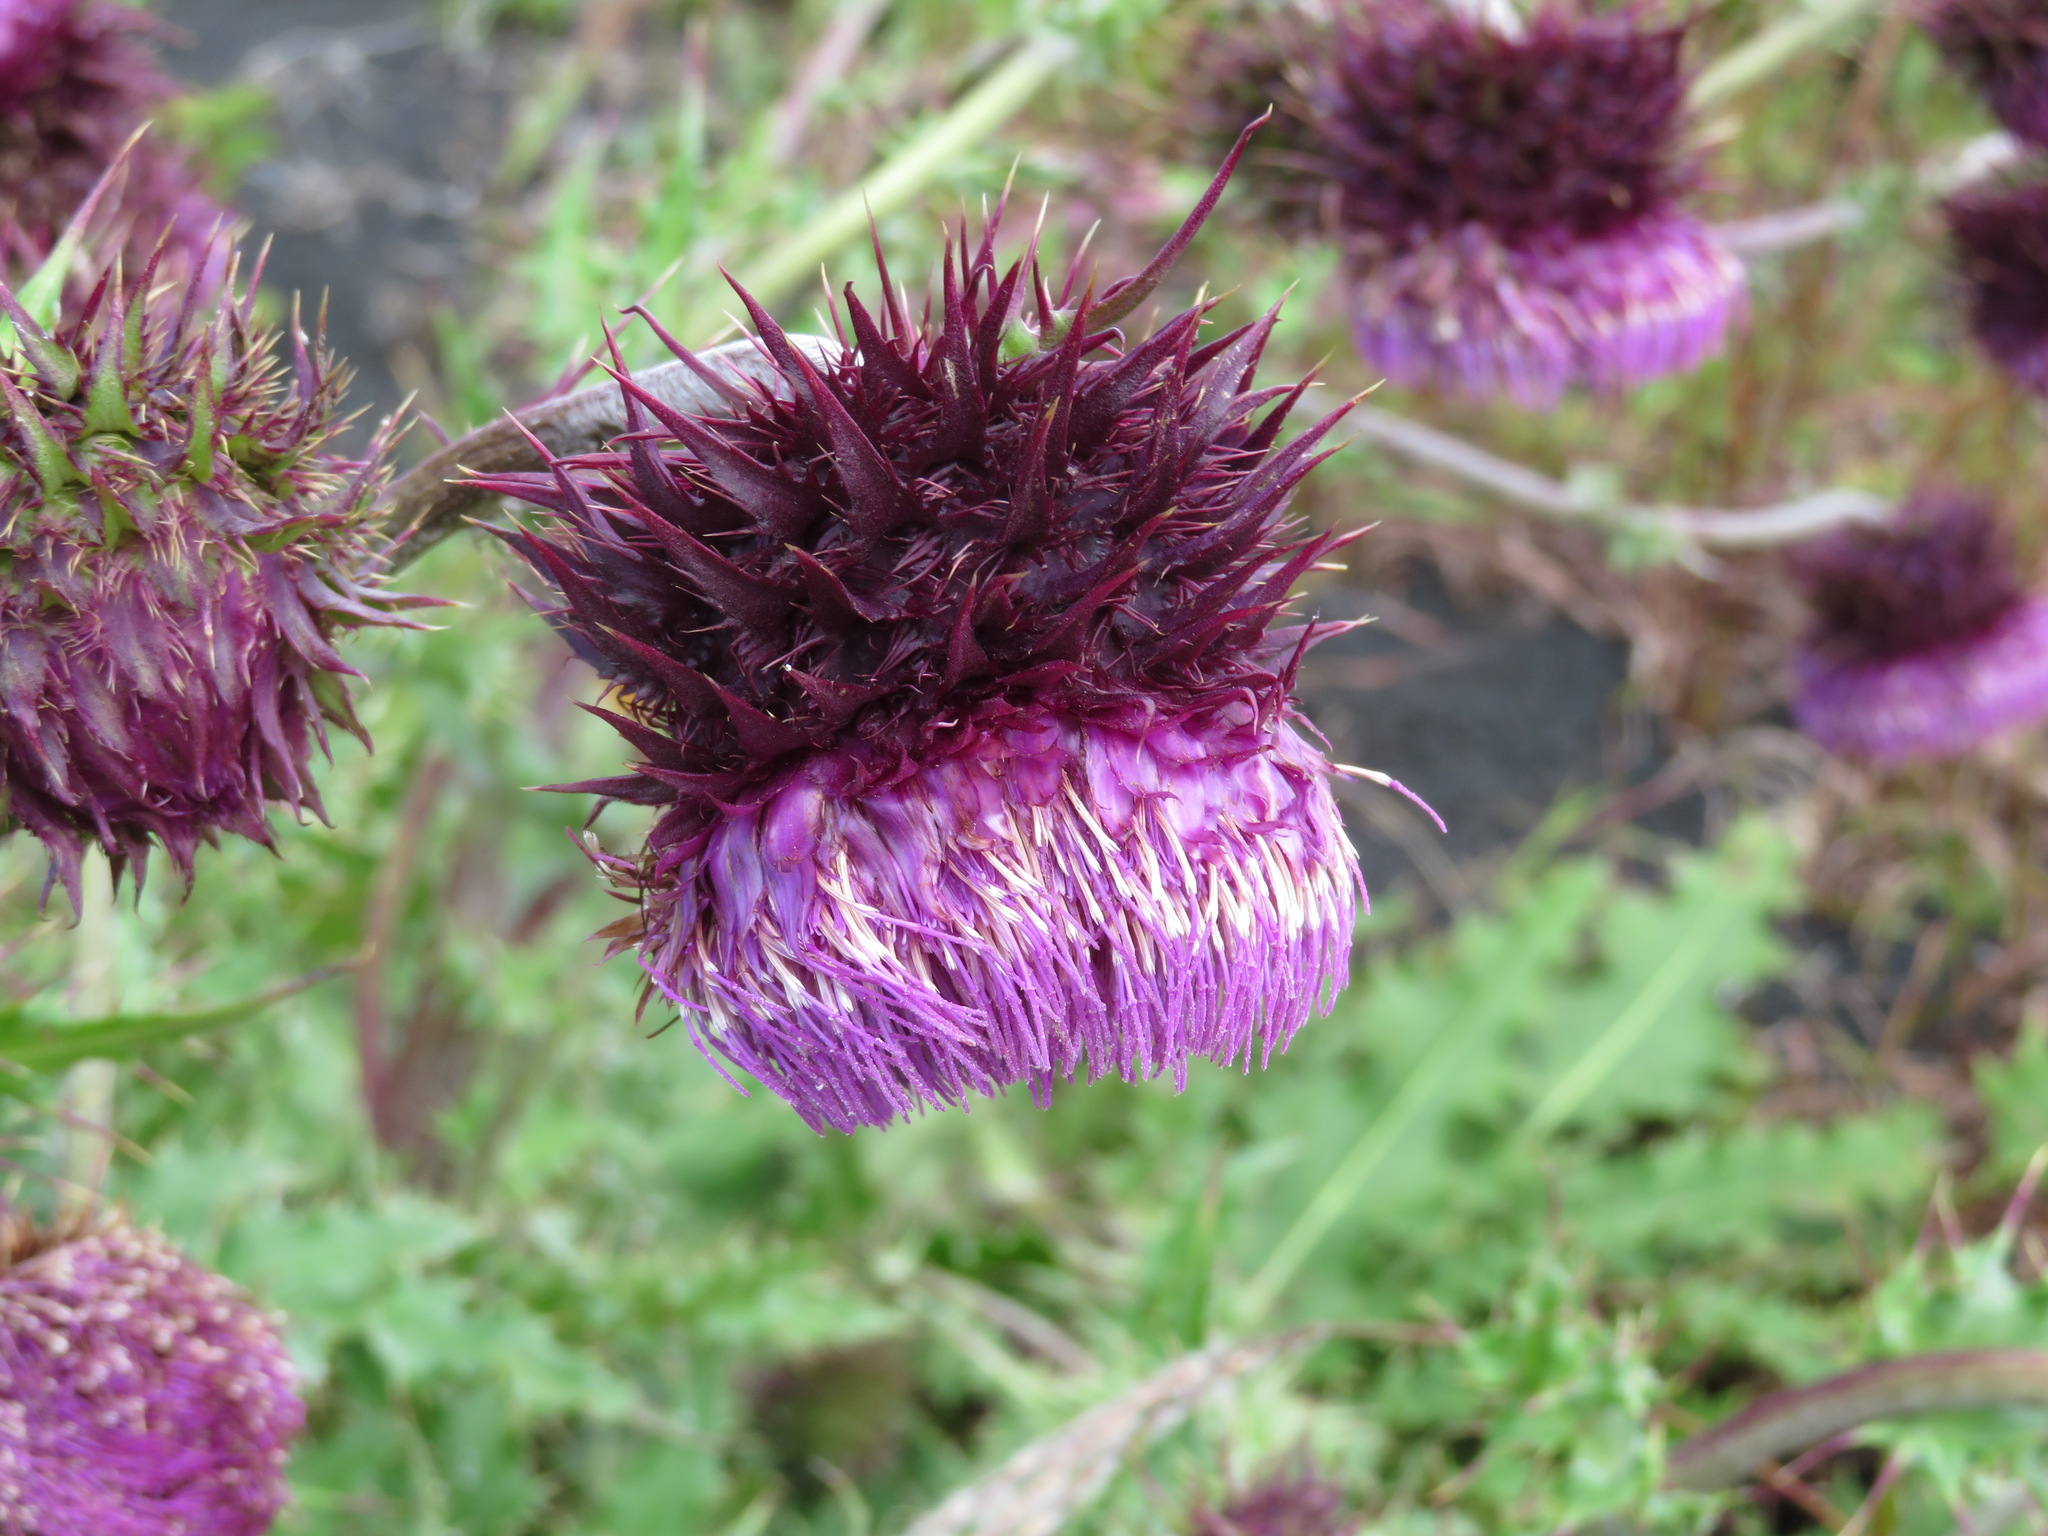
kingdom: Plantae
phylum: Tracheophyta
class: Magnoliopsida
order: Asterales
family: Asteraceae
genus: Cirsium
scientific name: Cirsium purpuratum
